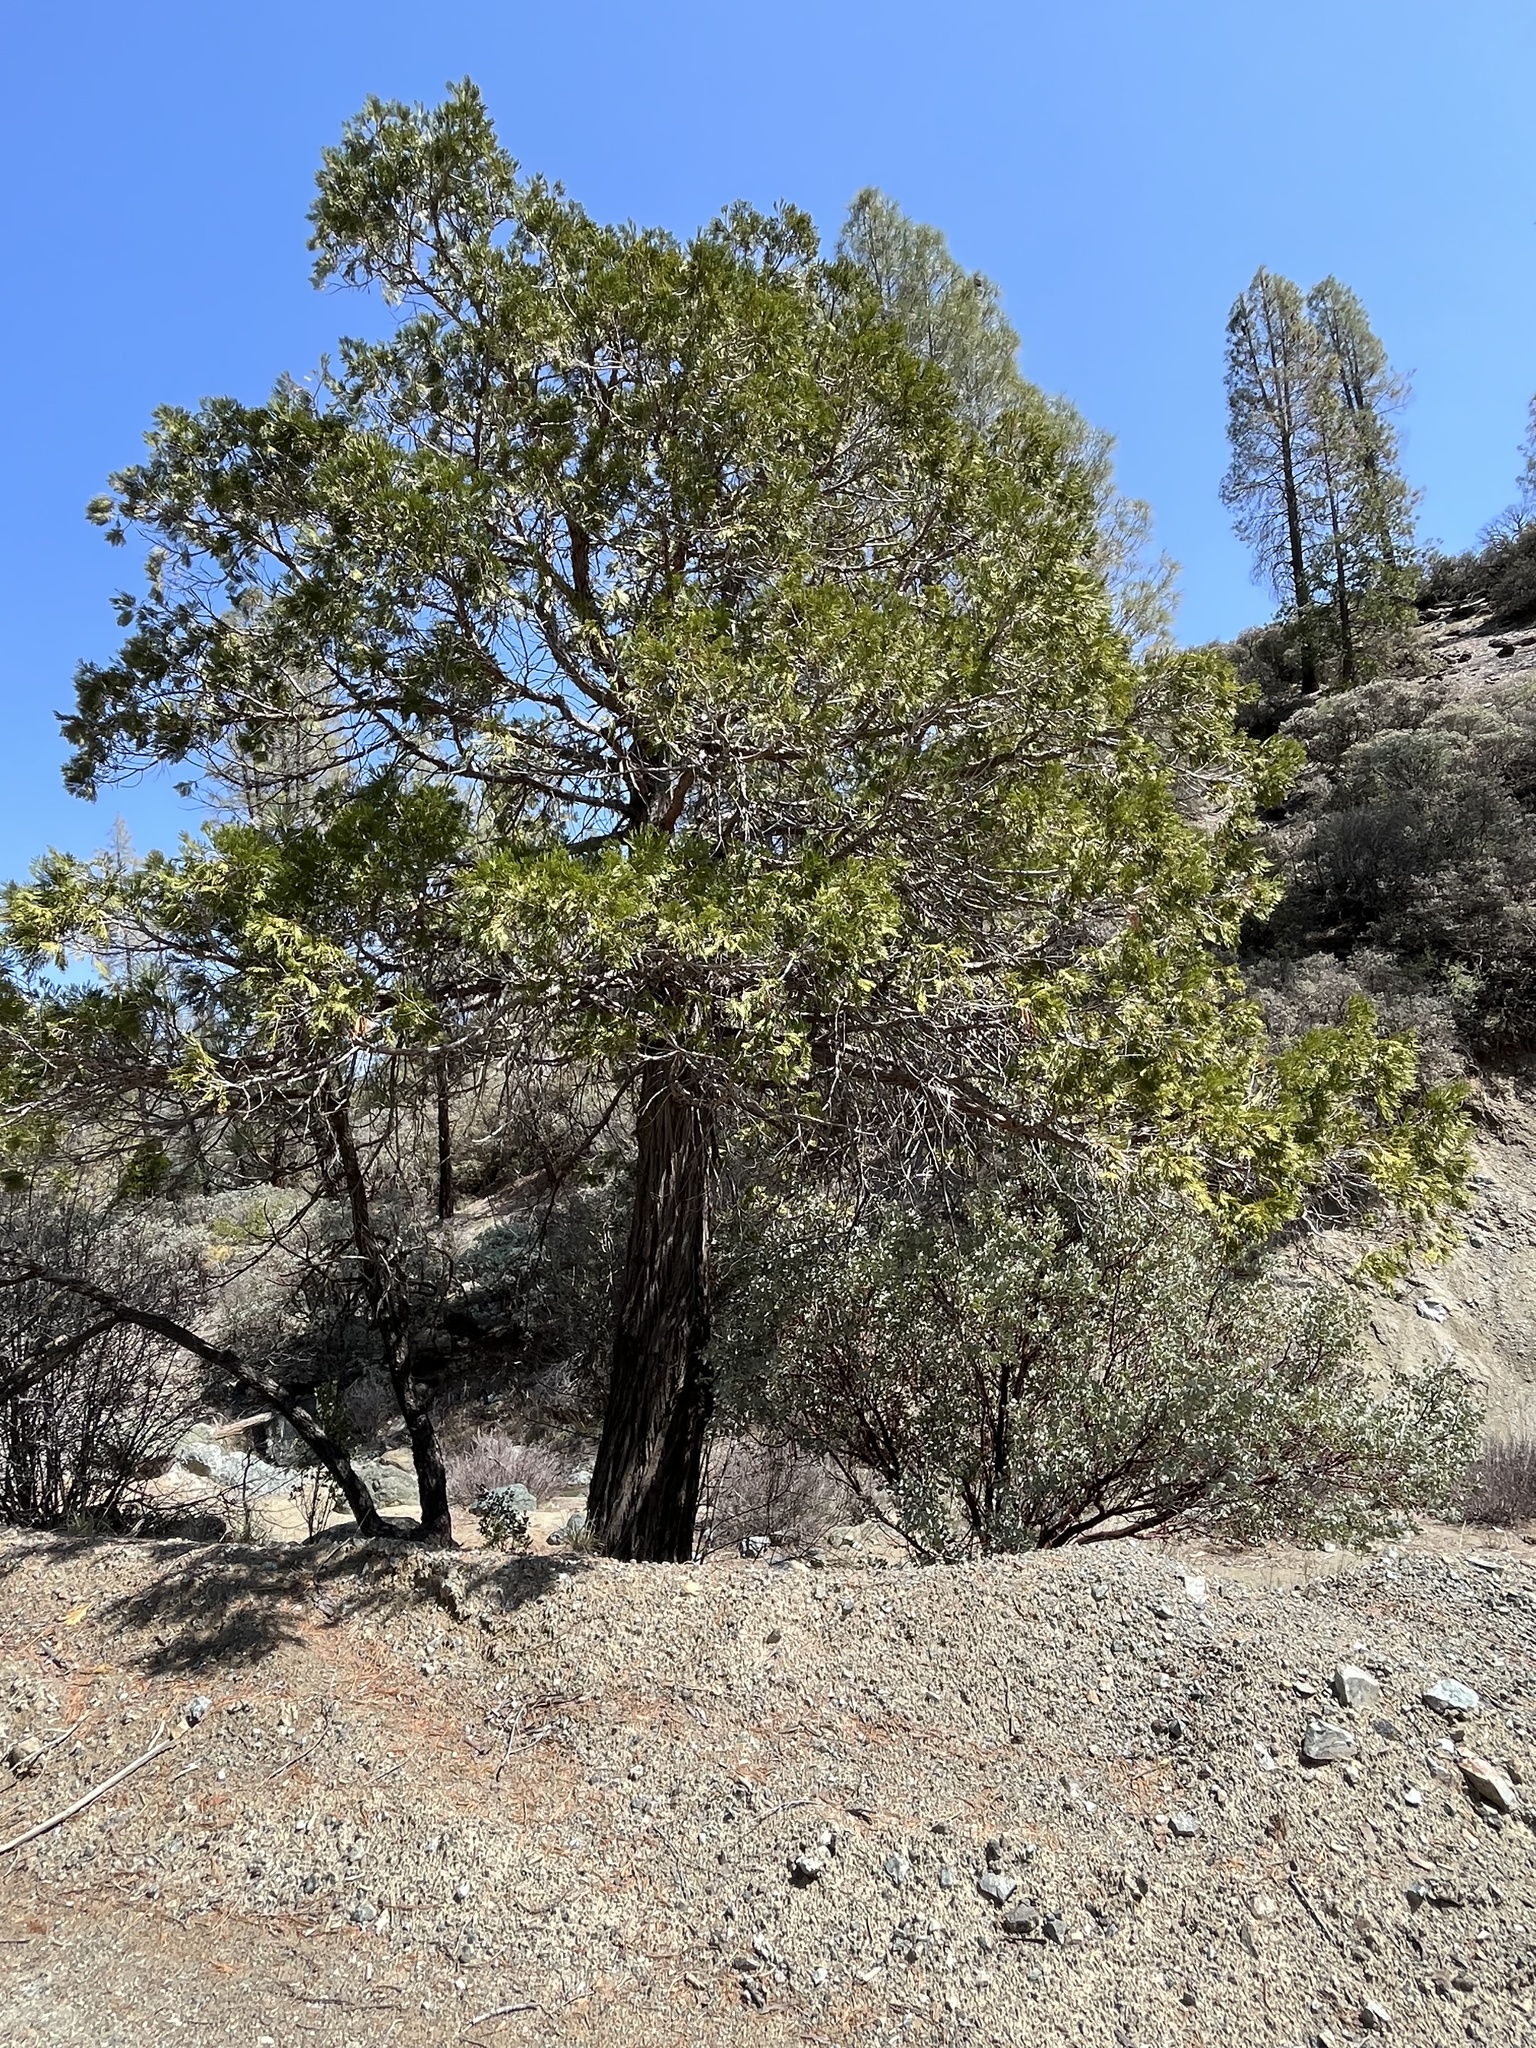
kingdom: Plantae
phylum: Tracheophyta
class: Pinopsida
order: Pinales
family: Cupressaceae
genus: Calocedrus
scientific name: Calocedrus decurrens
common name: Californian incense-cedar
